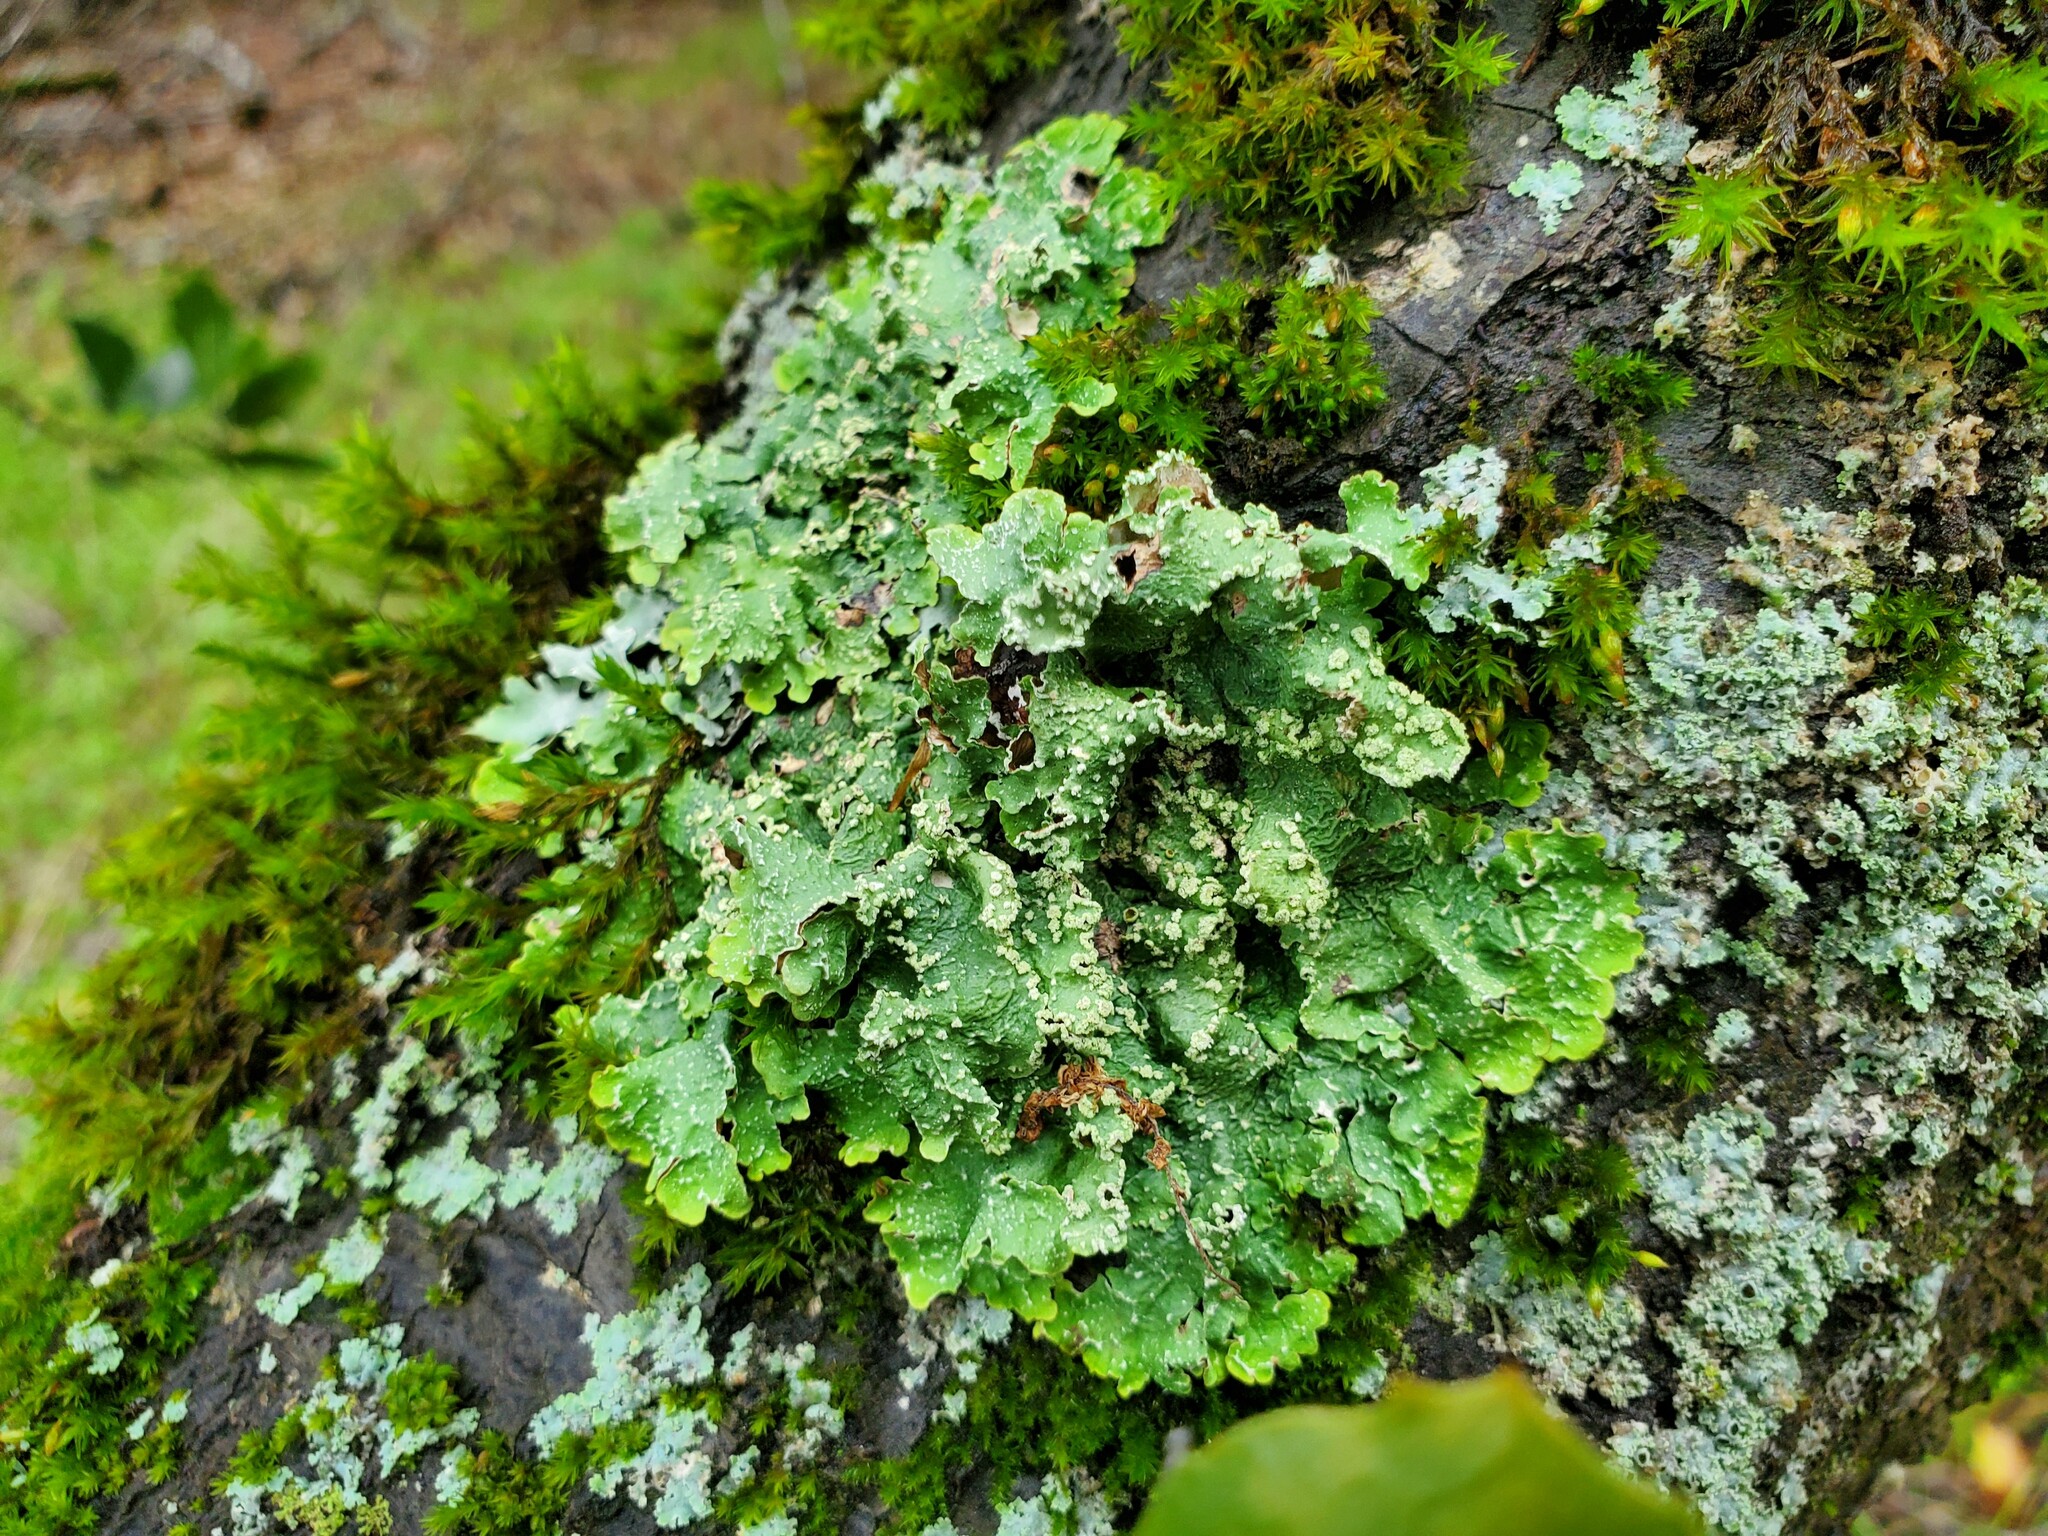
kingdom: Fungi
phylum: Ascomycota
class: Lecanoromycetes
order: Lecanorales
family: Parmeliaceae
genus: Flavopunctelia
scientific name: Flavopunctelia flaventior
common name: Speckled greenshield
